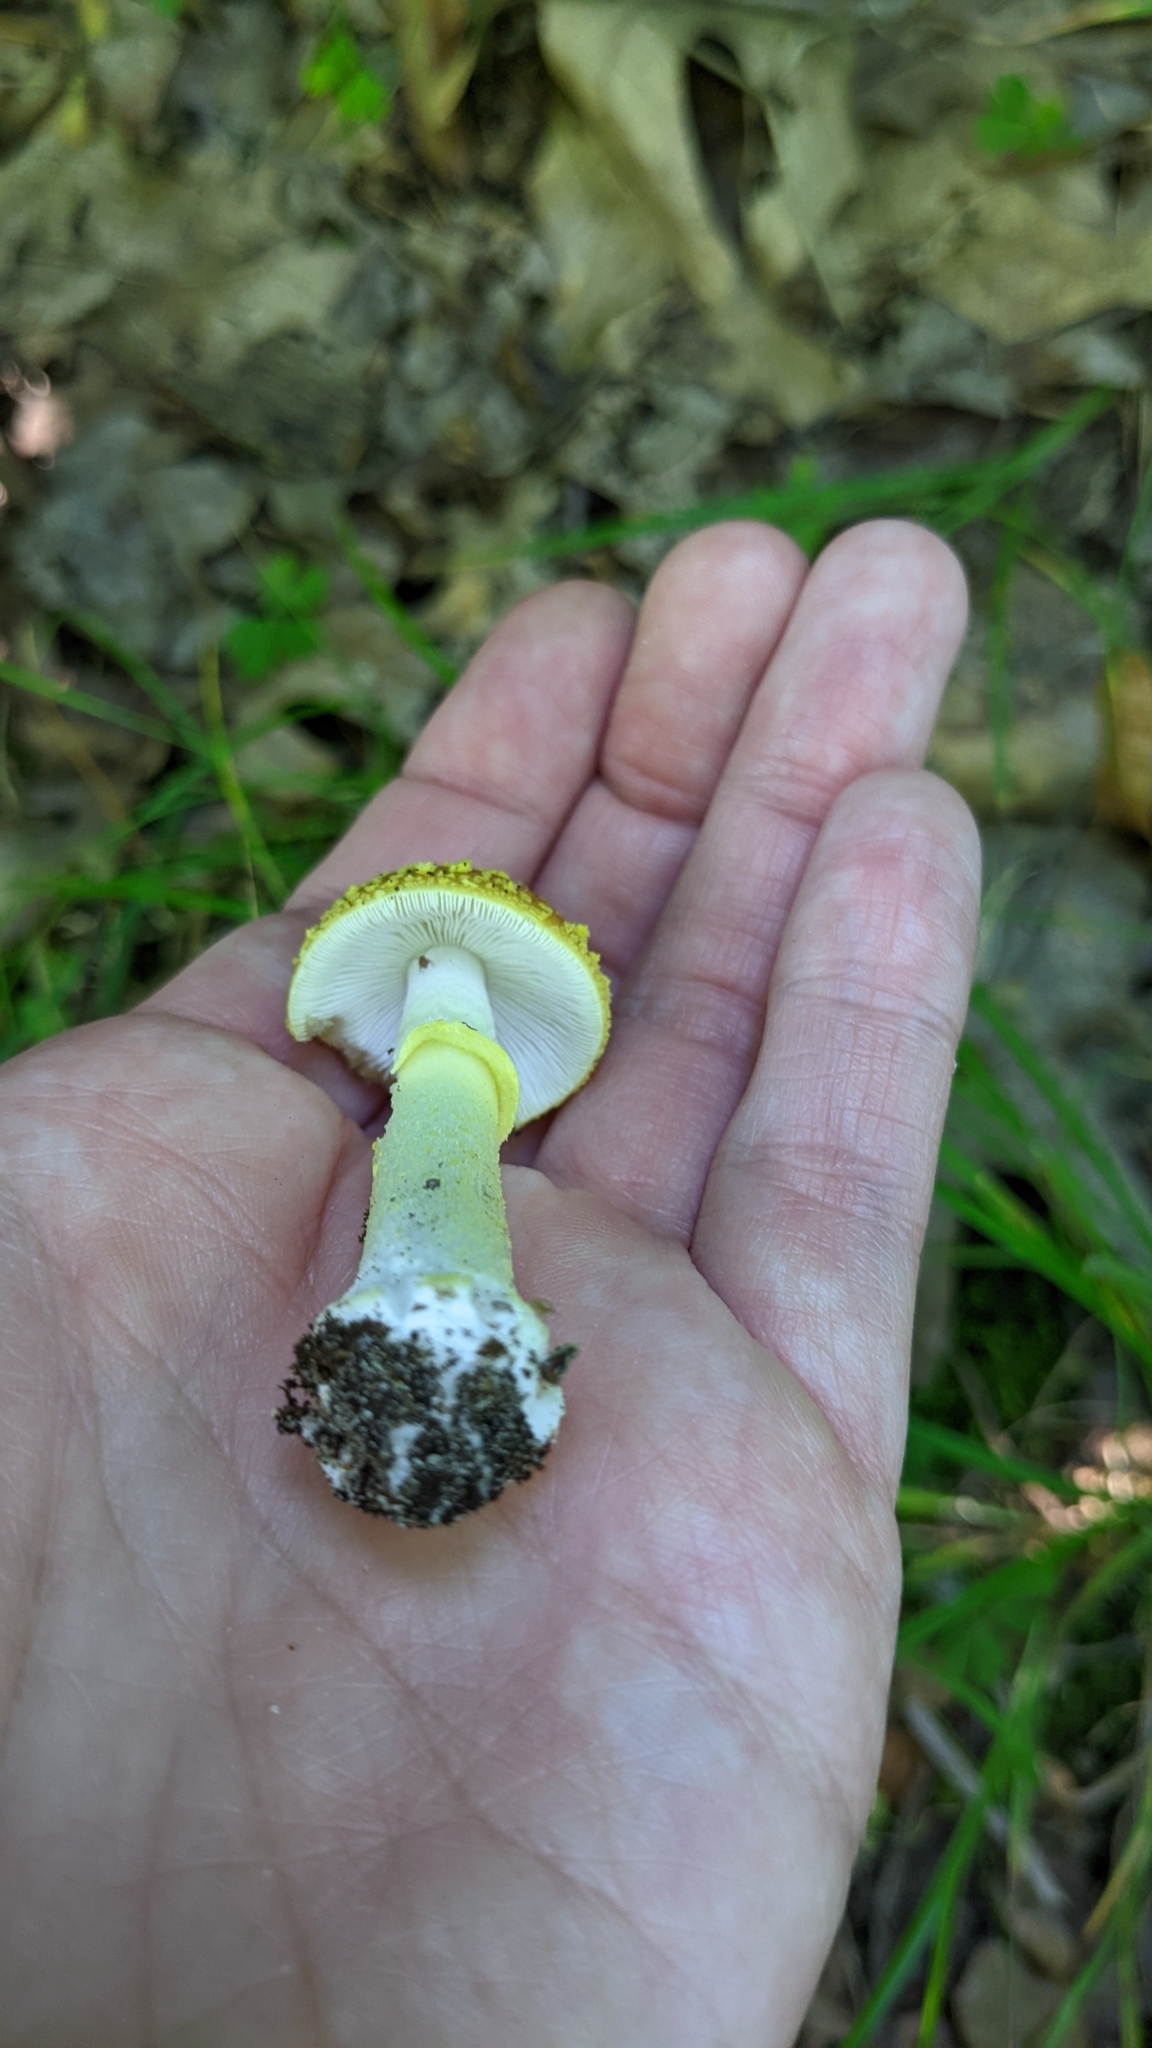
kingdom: Fungi
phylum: Basidiomycota
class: Agaricomycetes
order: Agaricales
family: Amanitaceae
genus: Amanita
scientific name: Amanita flavoconia
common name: Yellow patches
